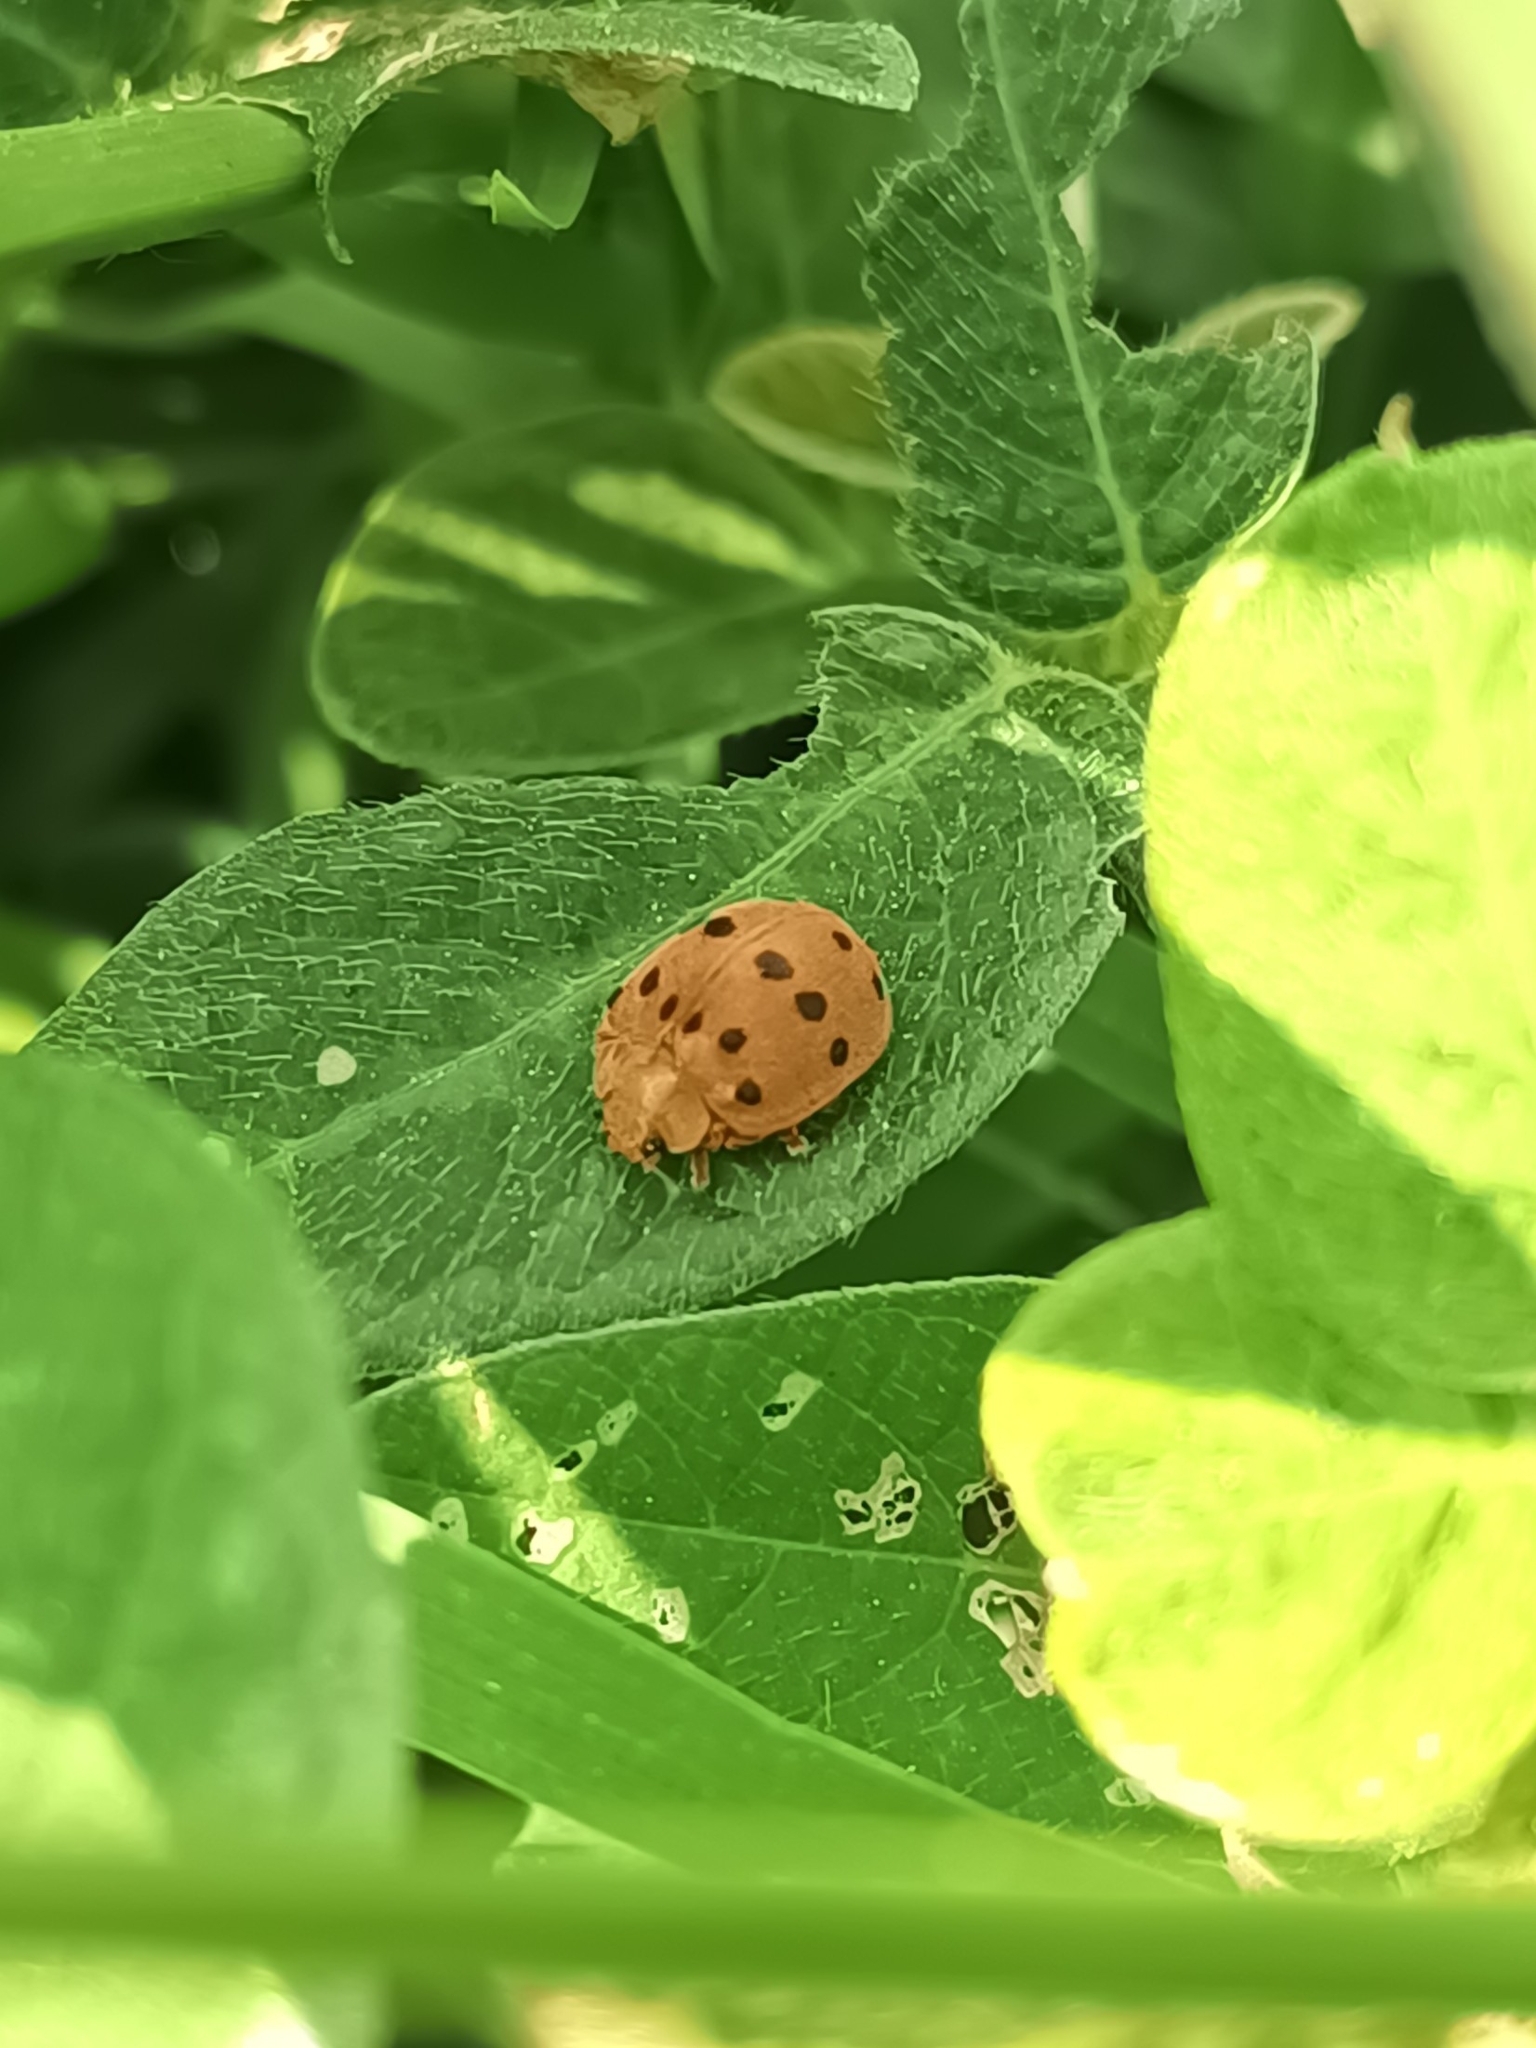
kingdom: Animalia
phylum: Arthropoda
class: Insecta
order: Coleoptera
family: Coccinellidae
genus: Epilachna
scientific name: Epilachna varivestis
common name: Ladybird beetle
